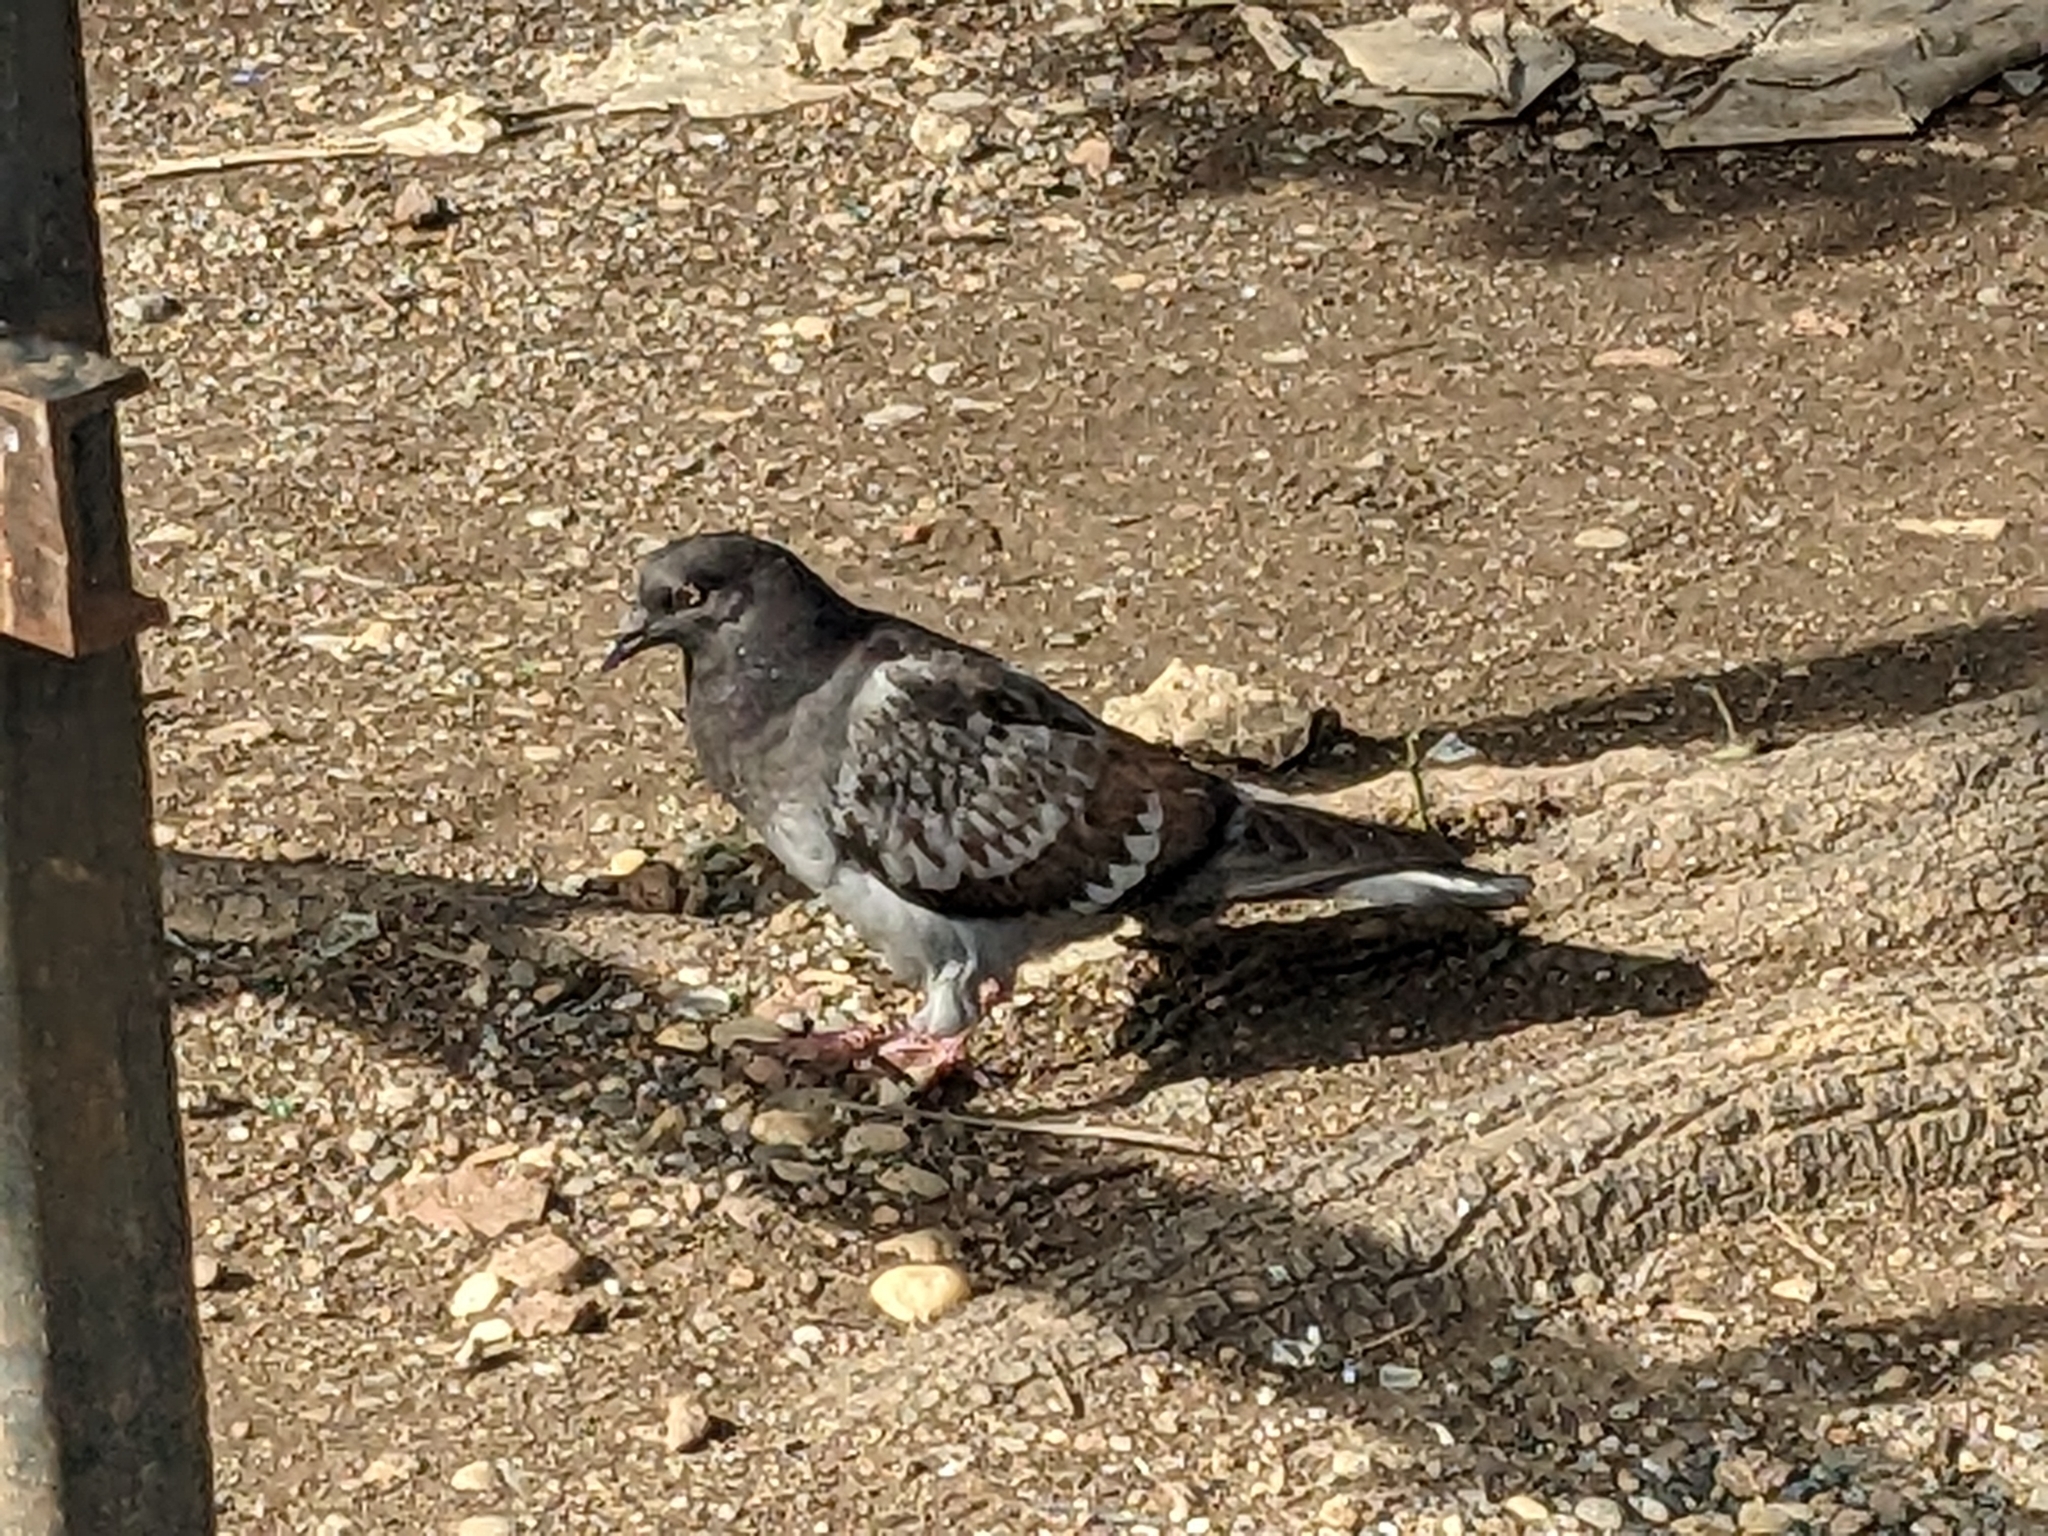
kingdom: Animalia
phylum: Chordata
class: Aves
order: Columbiformes
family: Columbidae
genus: Columba
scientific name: Columba livia
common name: Rock pigeon
